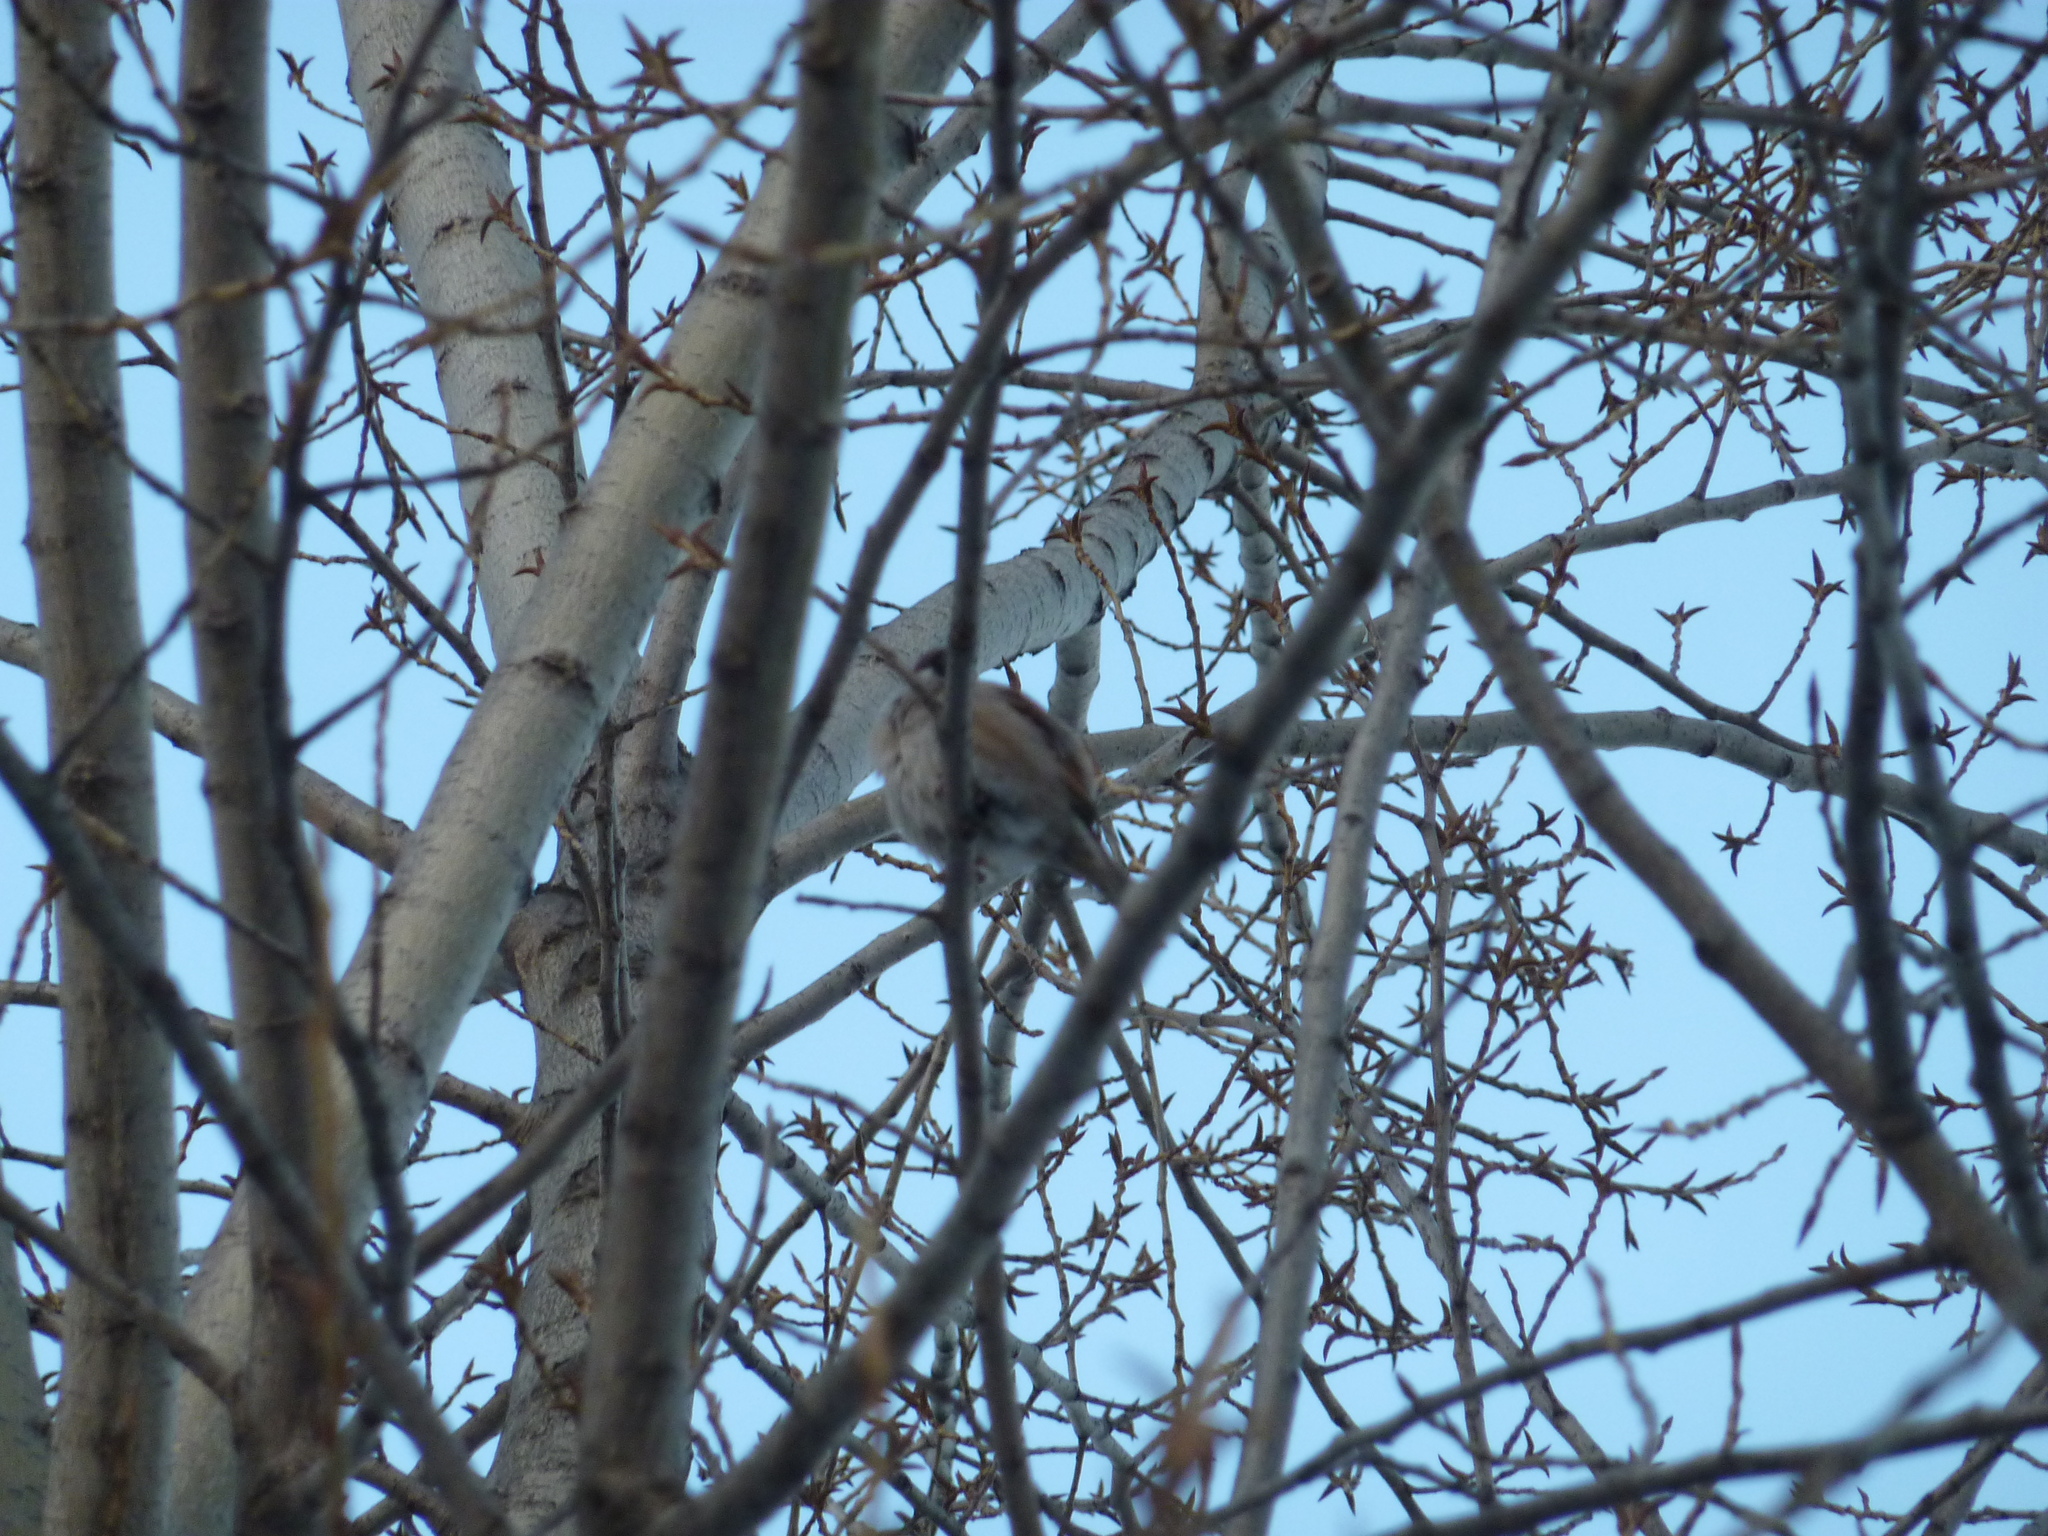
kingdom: Animalia
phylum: Chordata
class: Aves
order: Passeriformes
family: Passeridae
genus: Passer
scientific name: Passer montanus
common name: Eurasian tree sparrow
